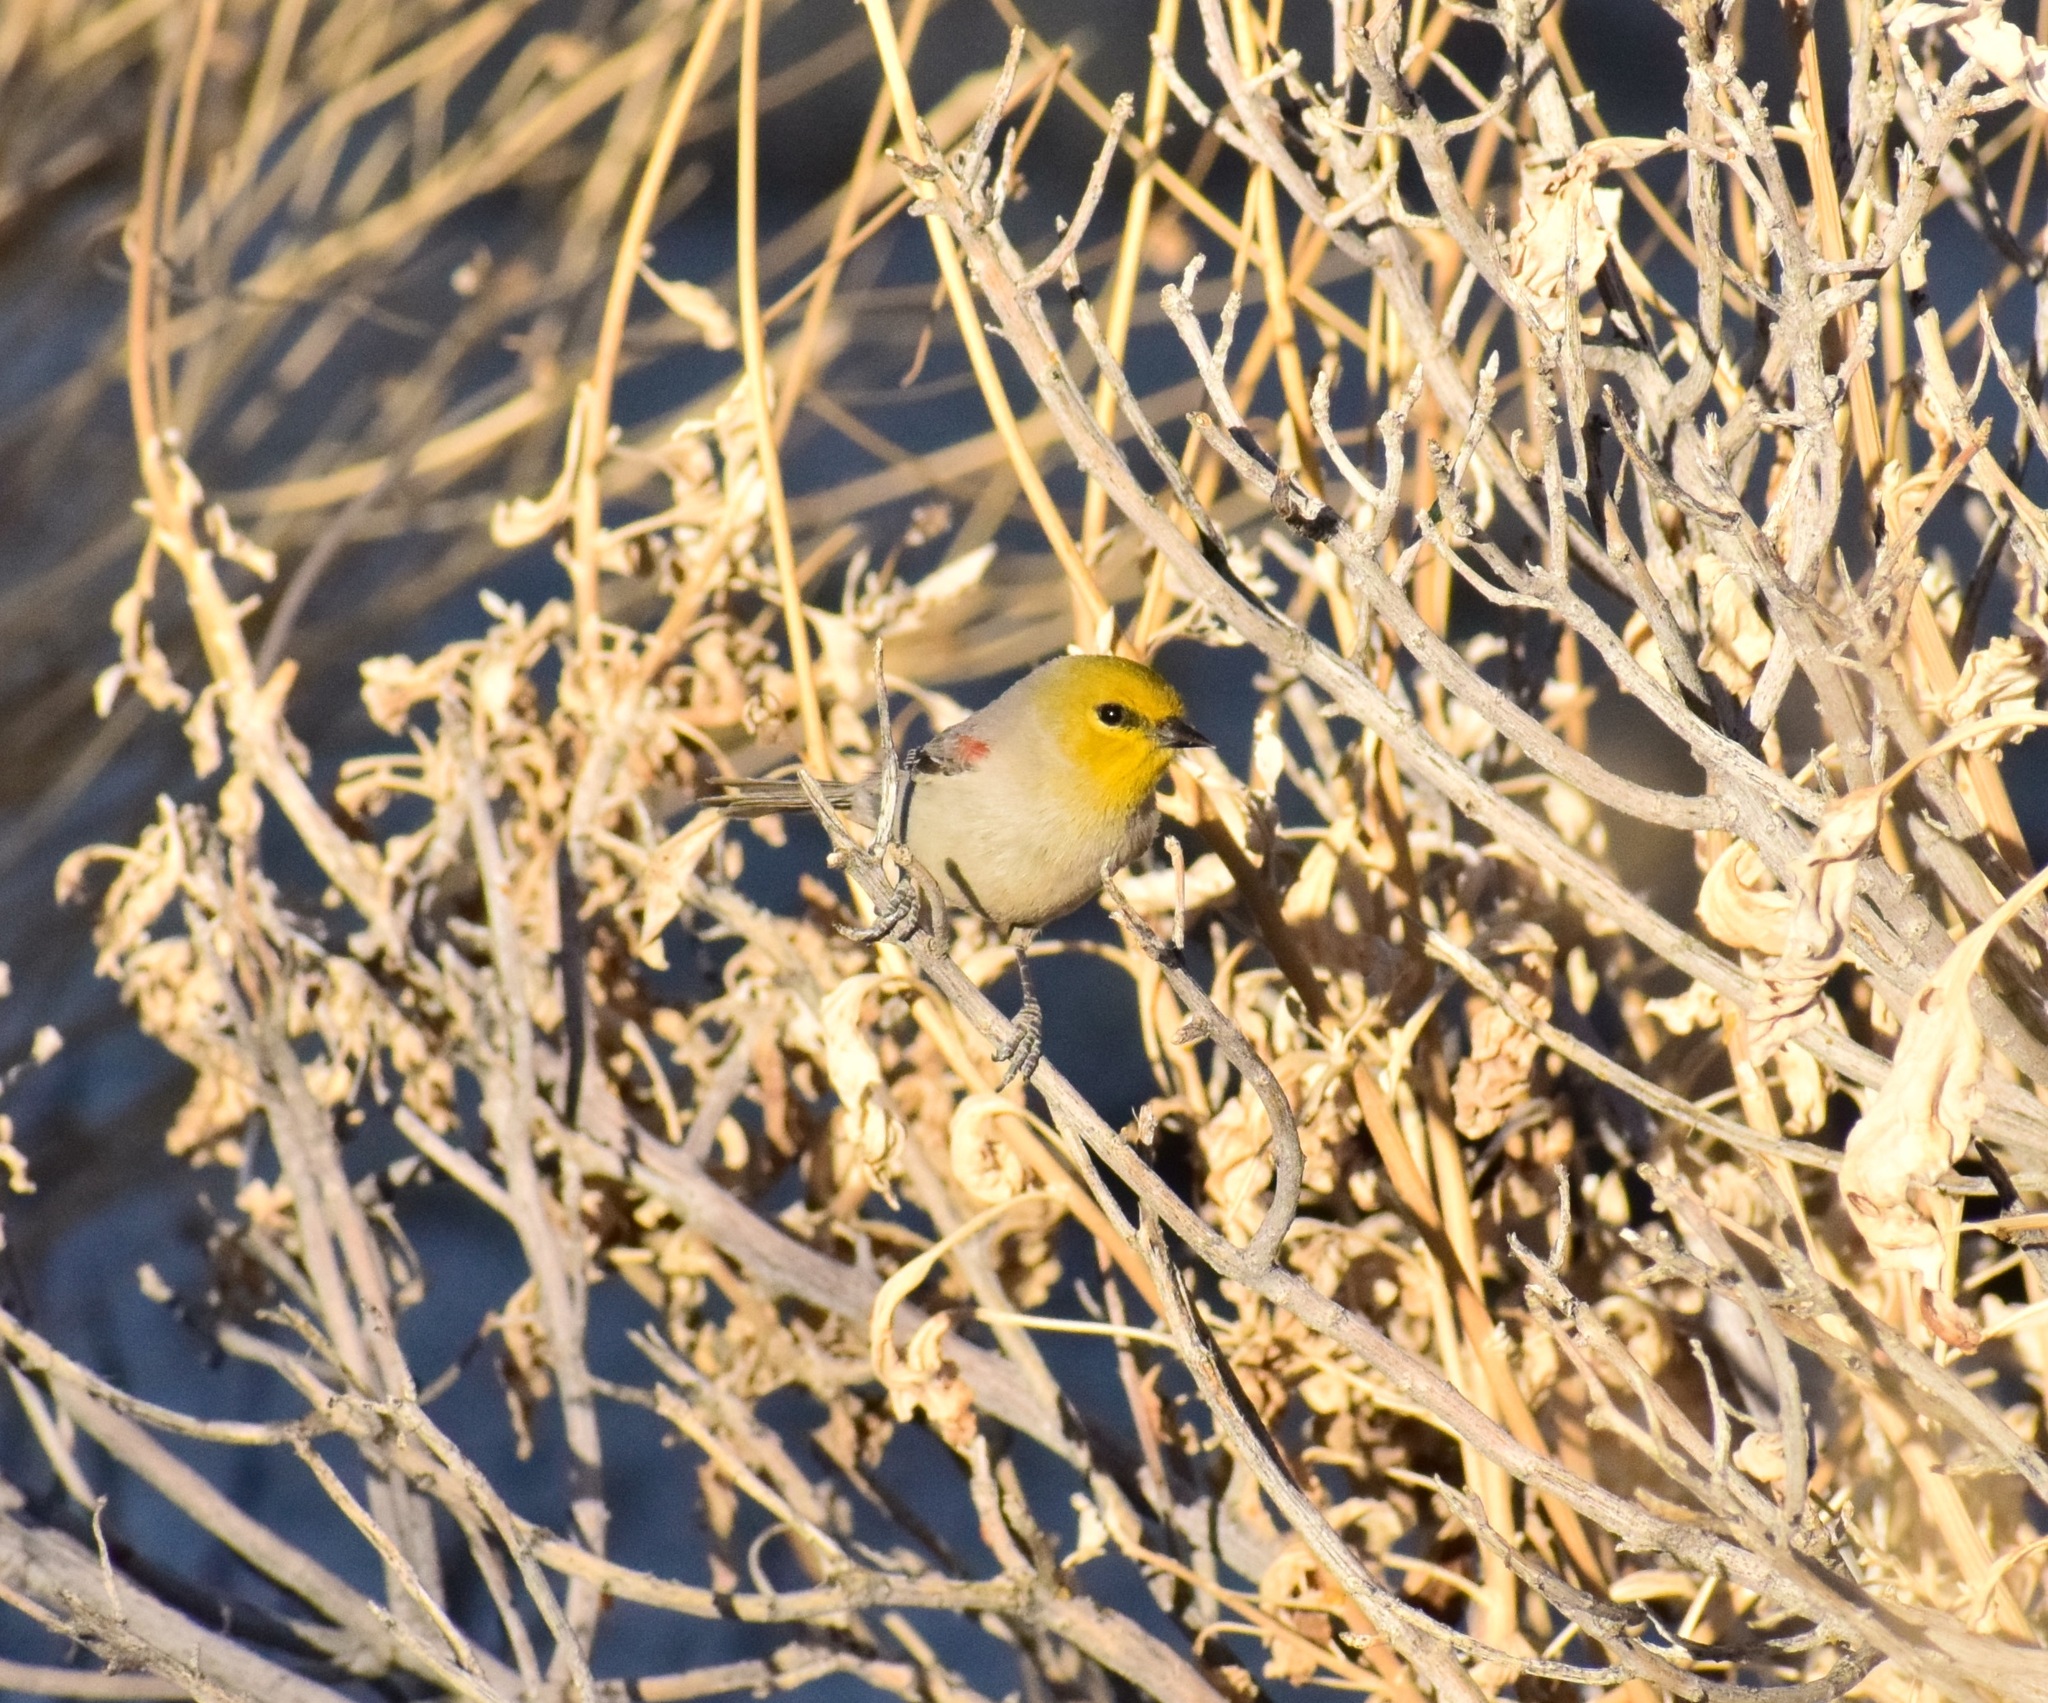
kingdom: Animalia
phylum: Chordata
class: Aves
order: Passeriformes
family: Remizidae
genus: Auriparus
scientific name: Auriparus flaviceps
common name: Verdin
